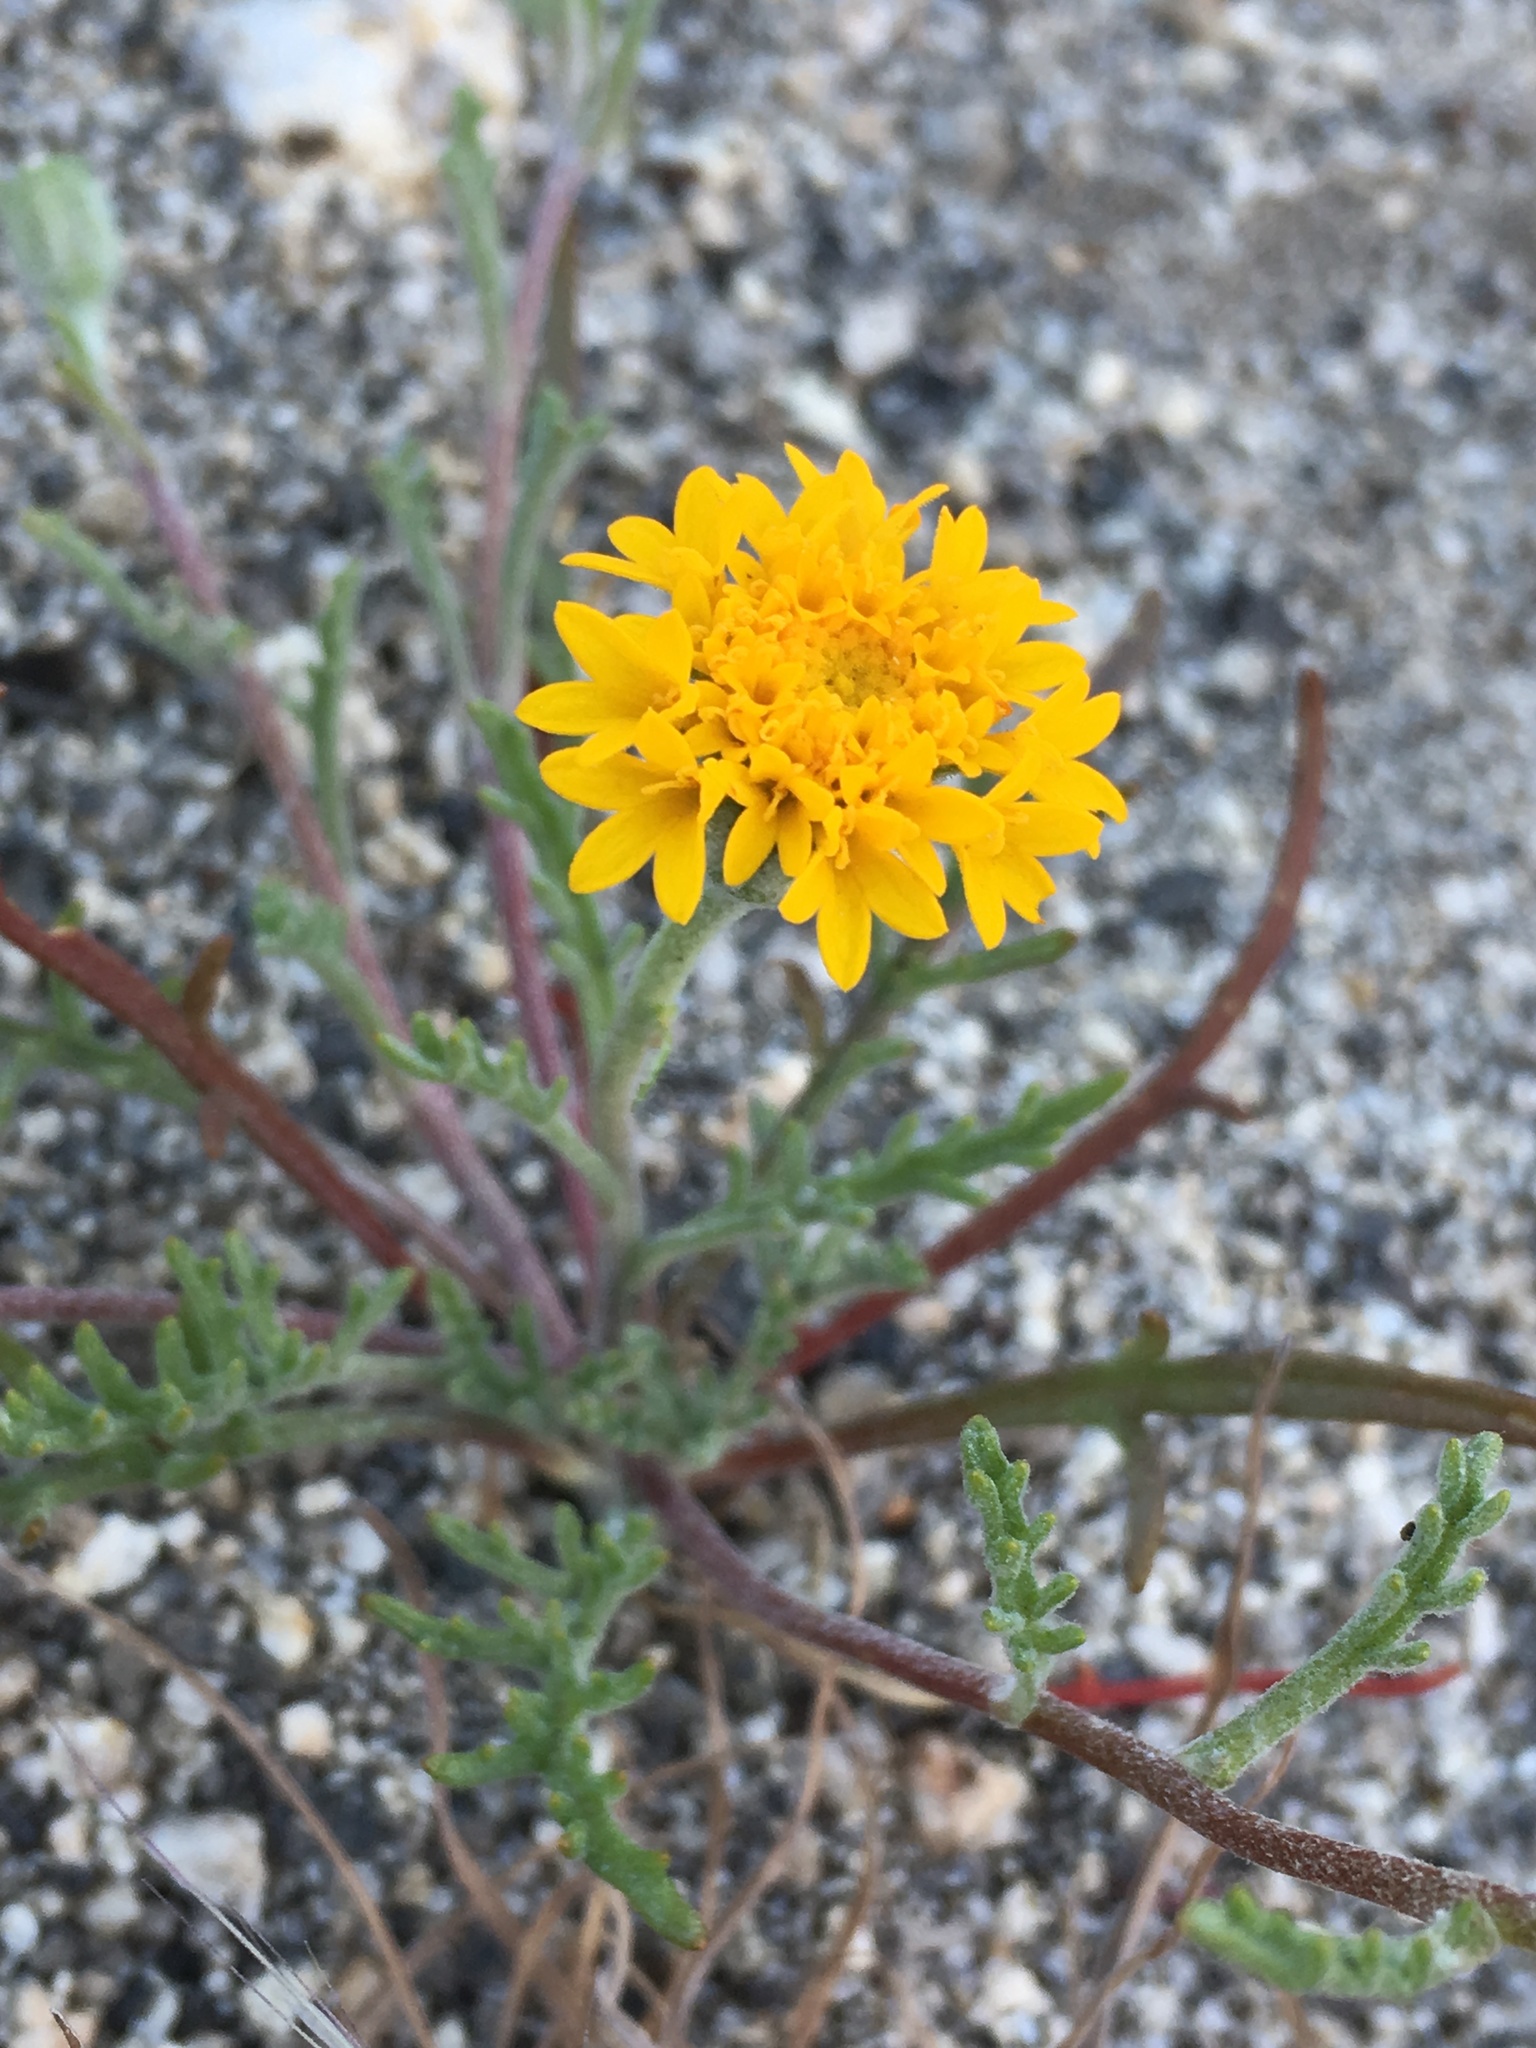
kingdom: Plantae
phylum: Tracheophyta
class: Magnoliopsida
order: Asterales
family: Asteraceae
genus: Chaenactis
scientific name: Chaenactis glabriuscula
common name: Yellow pincushion
